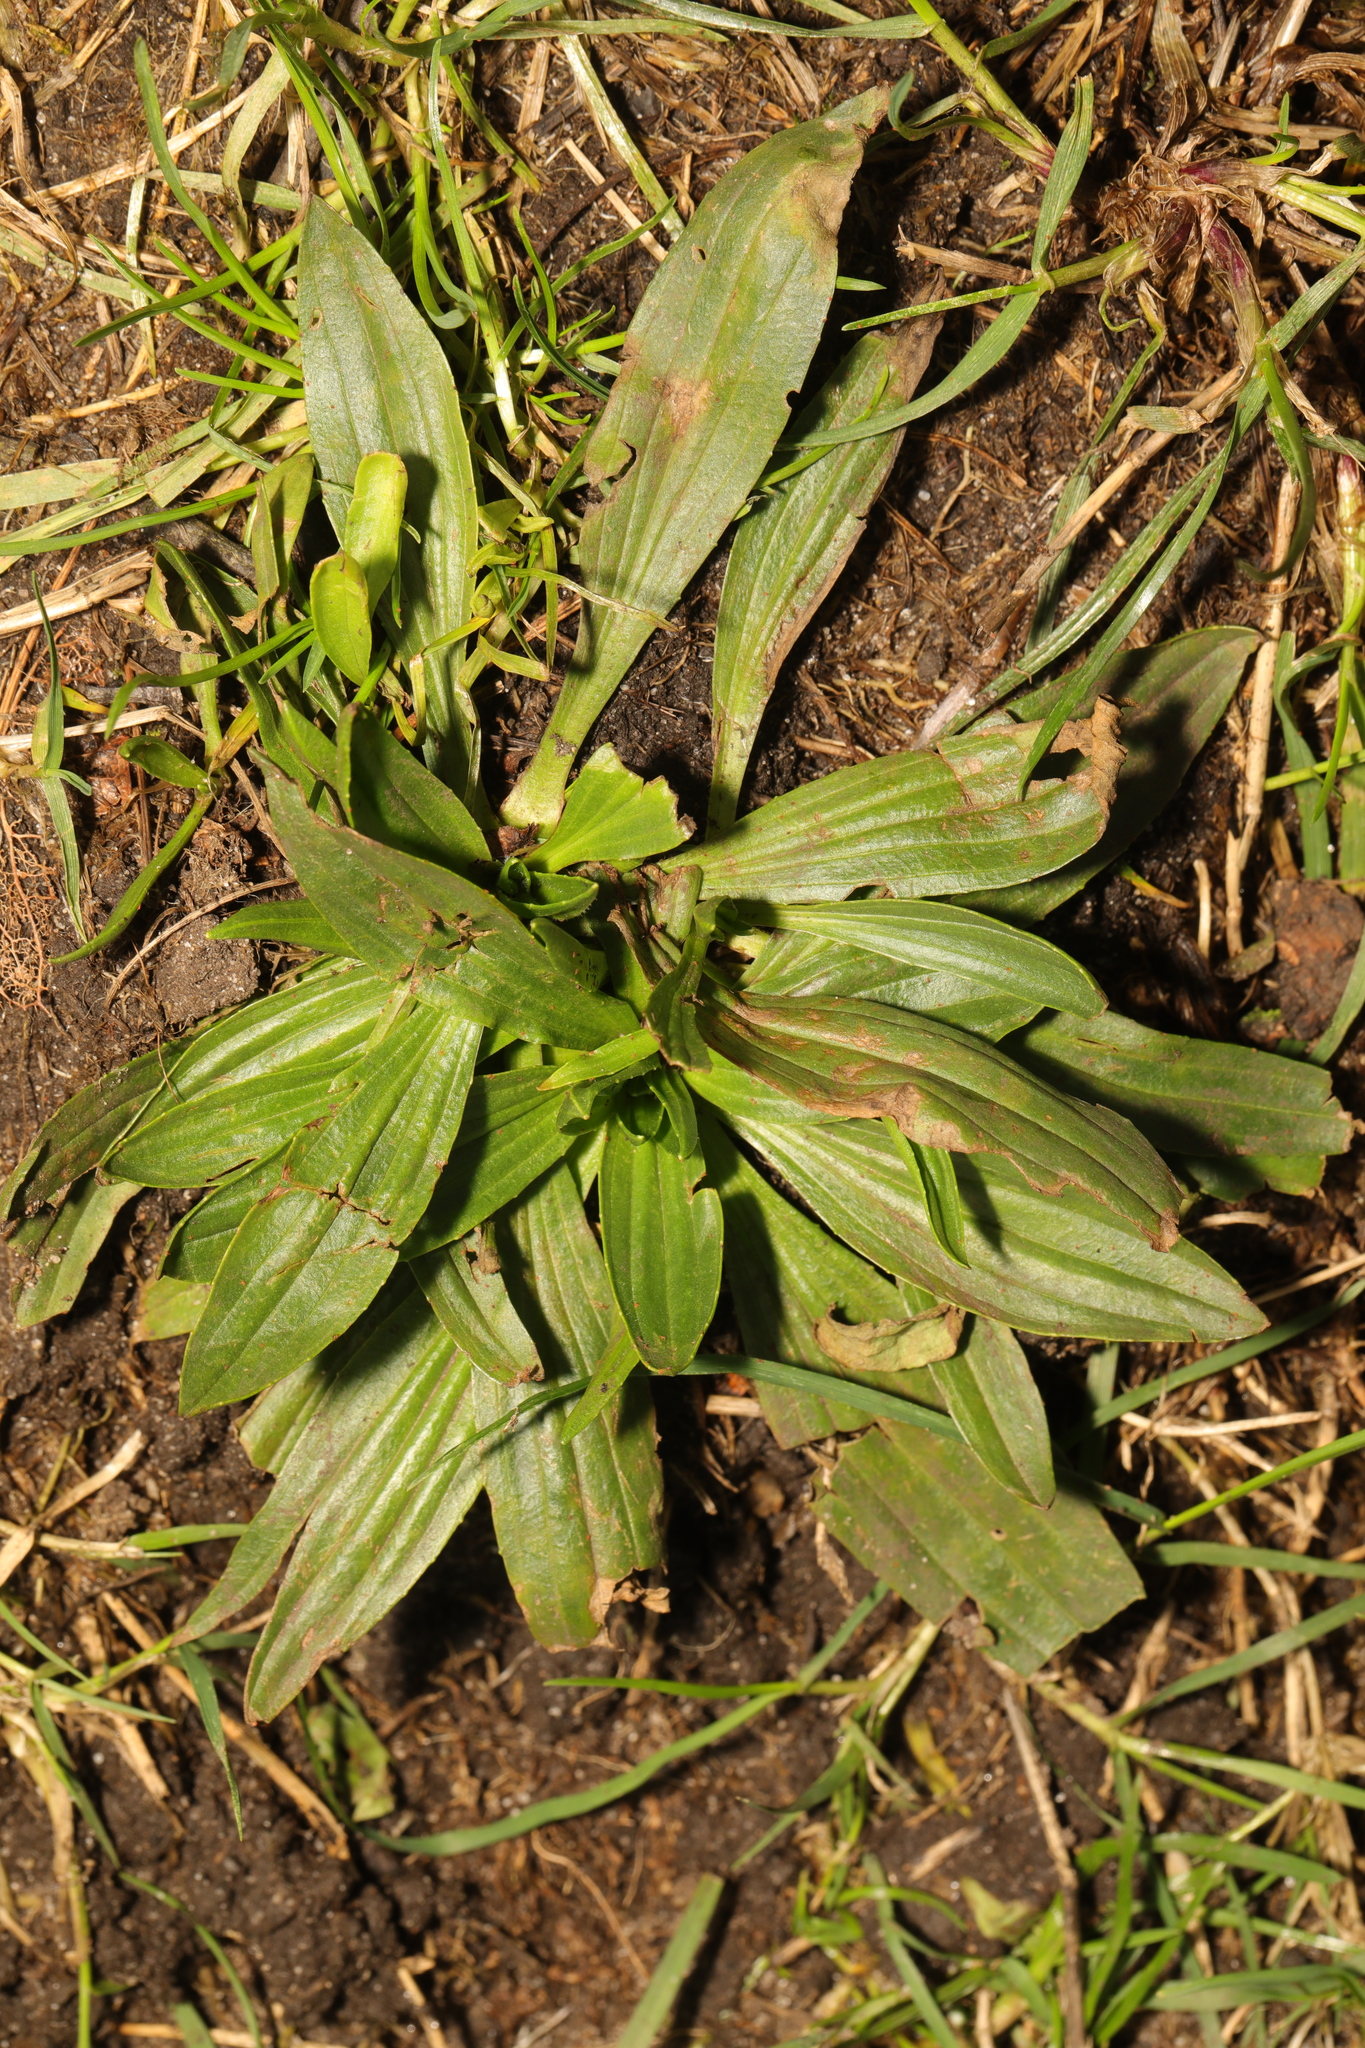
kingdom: Plantae
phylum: Tracheophyta
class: Magnoliopsida
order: Lamiales
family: Plantaginaceae
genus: Plantago
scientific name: Plantago lanceolata
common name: Ribwort plantain
